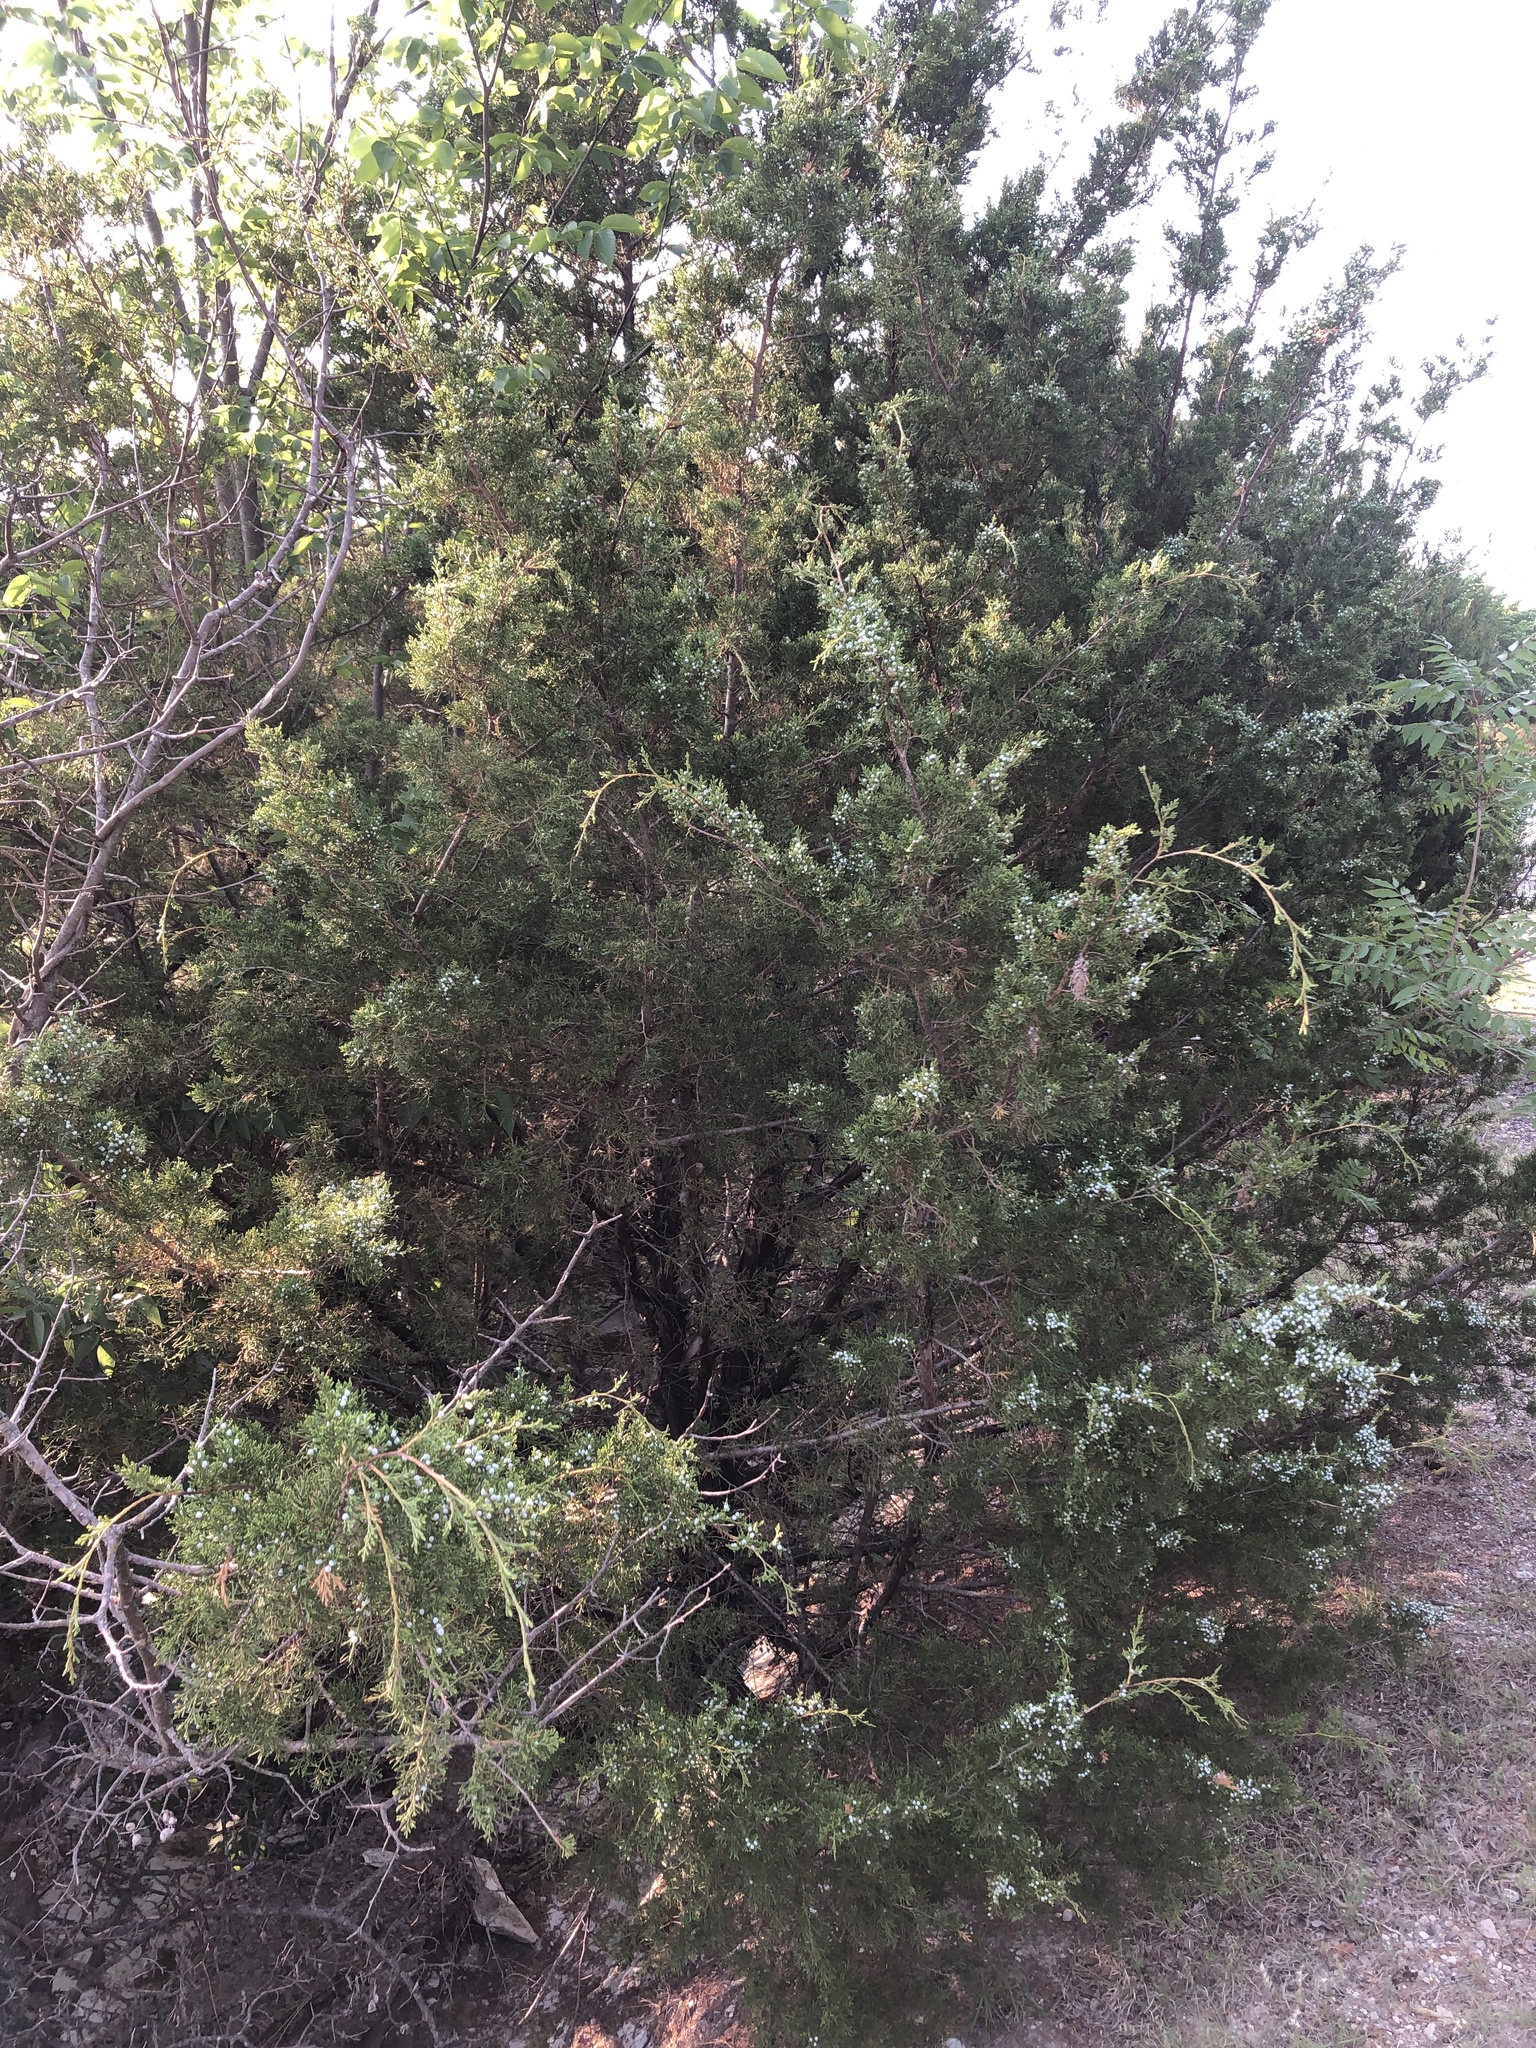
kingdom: Plantae
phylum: Tracheophyta
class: Pinopsida
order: Pinales
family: Cupressaceae
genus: Juniperus
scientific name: Juniperus virginiana
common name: Red juniper
